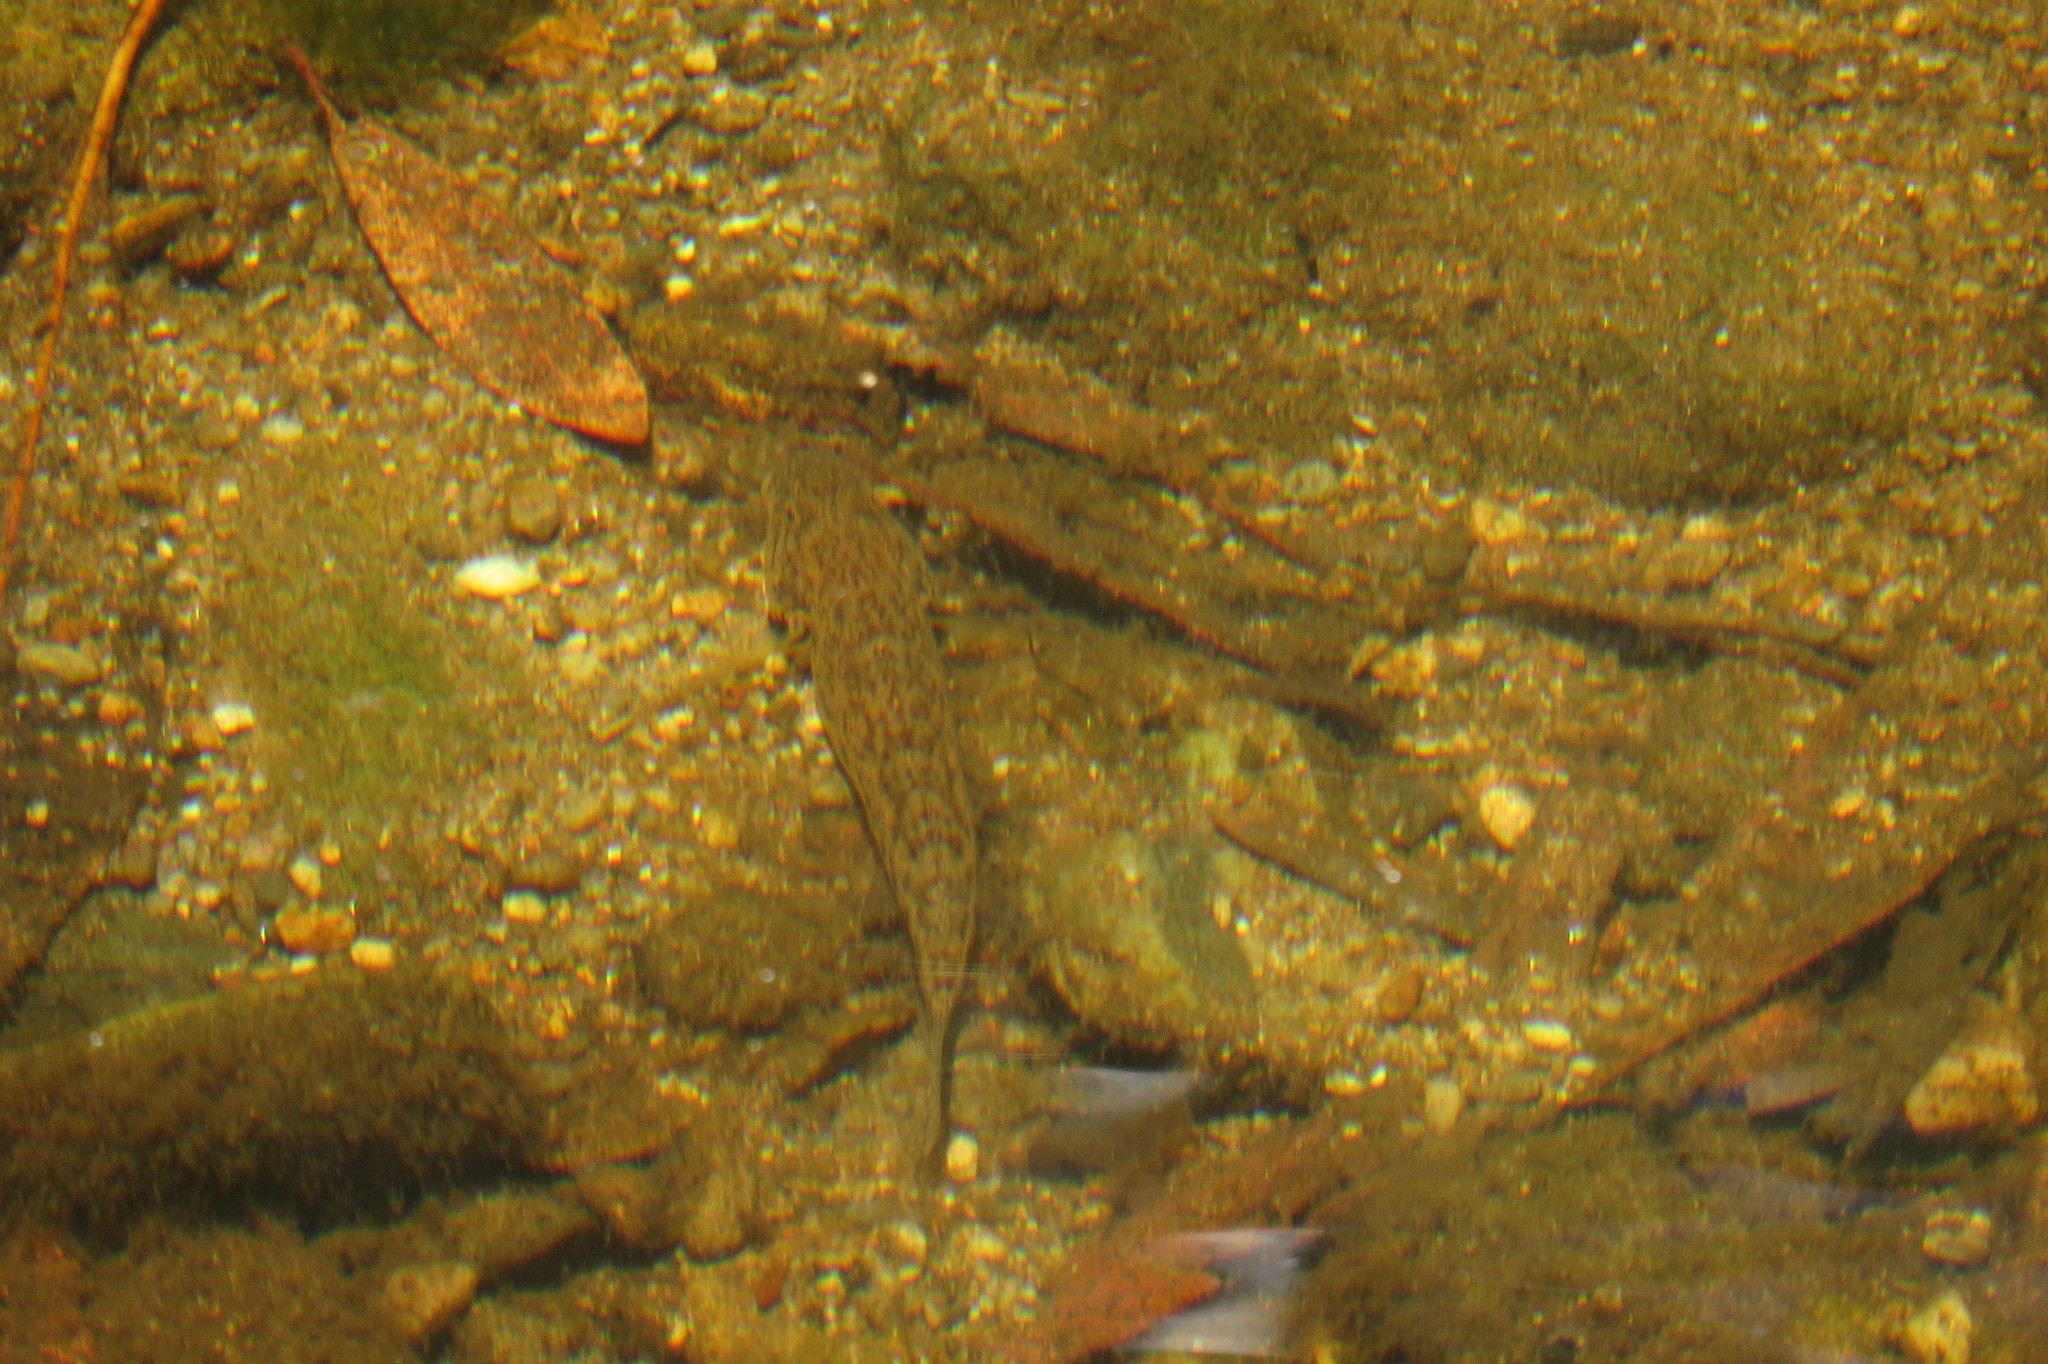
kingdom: Animalia
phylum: Chordata
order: Perciformes
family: Gobiidae
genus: Awaous
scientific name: Awaous acritosus
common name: Roman nose goby
